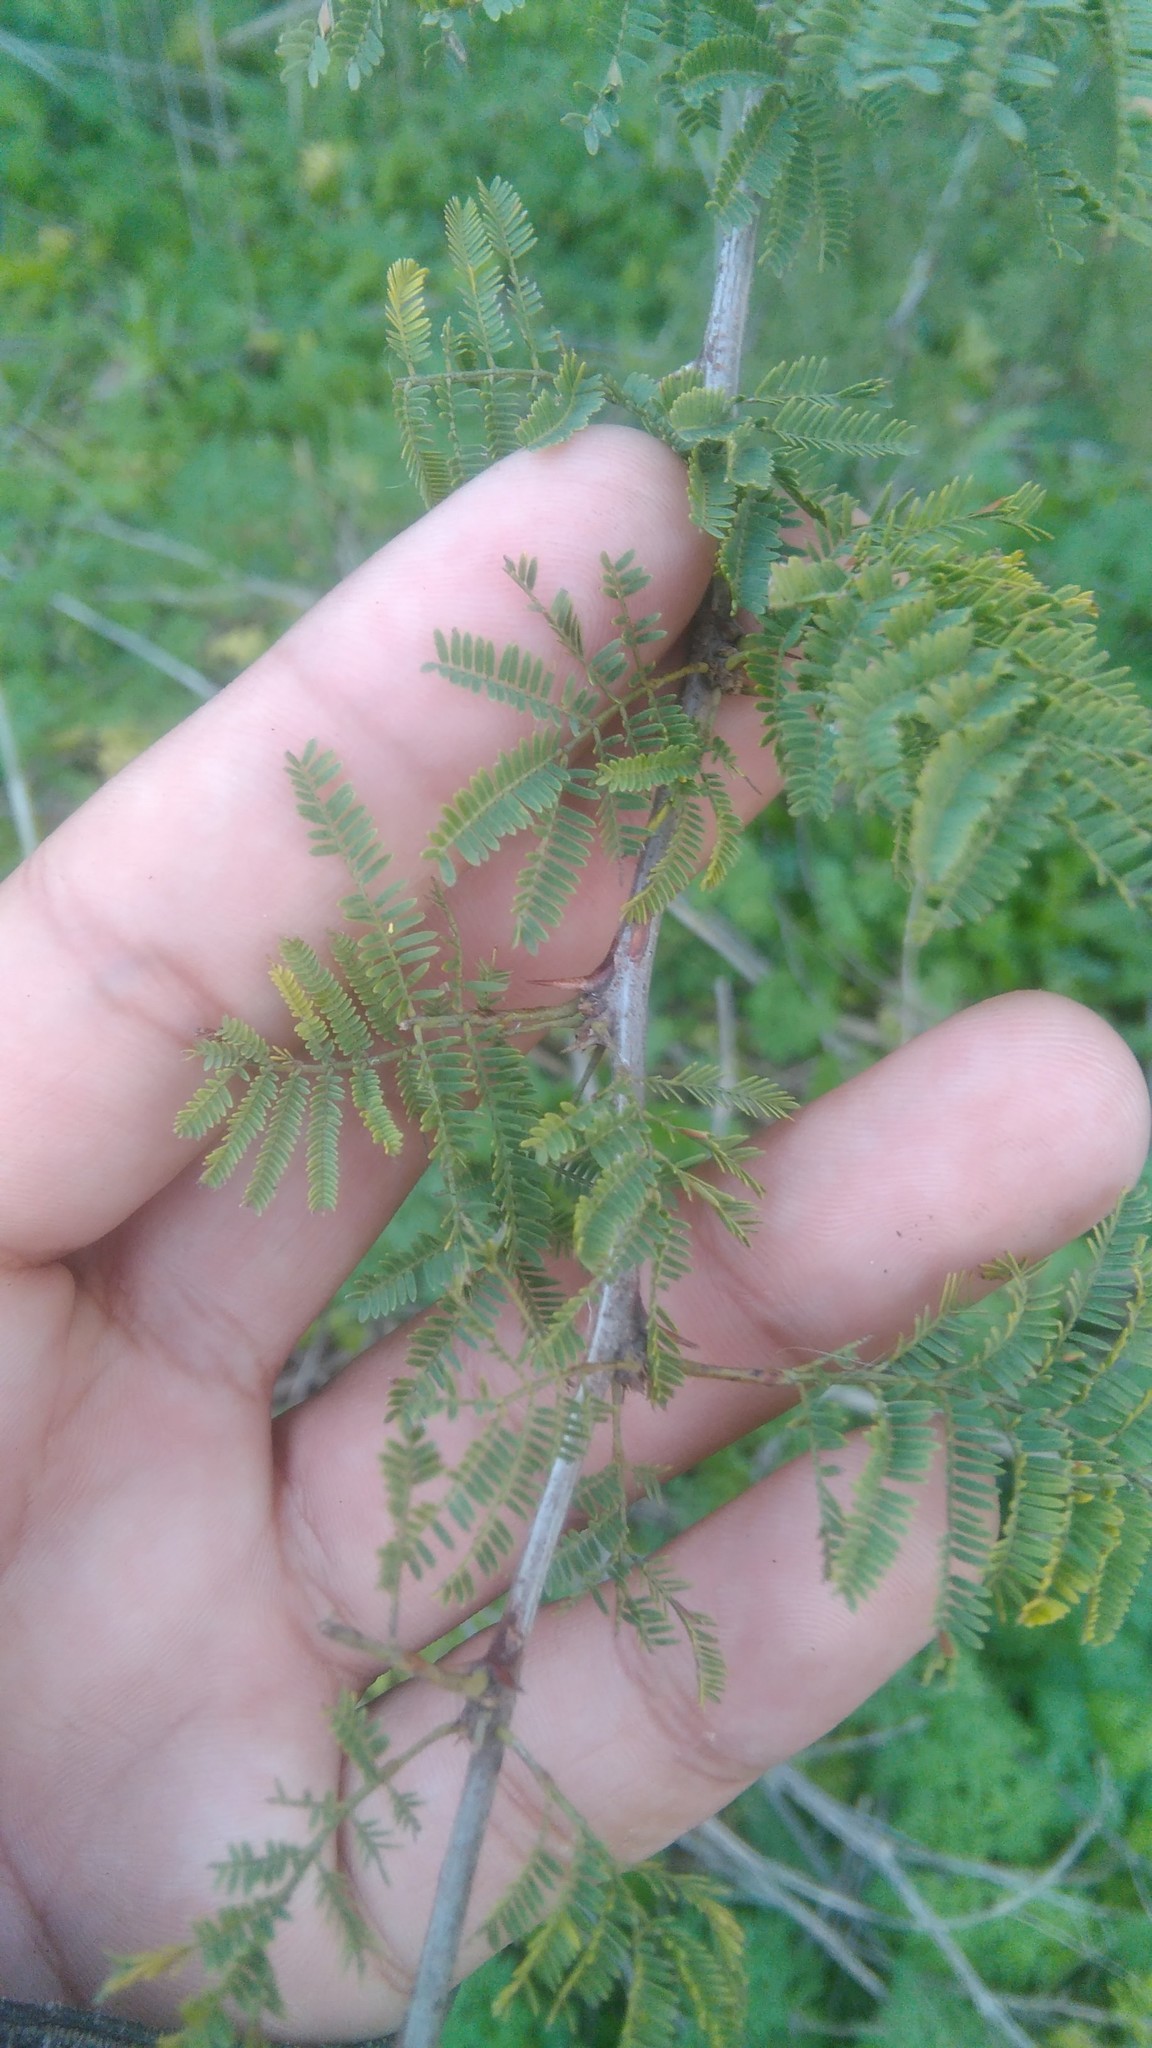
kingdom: Plantae
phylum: Tracheophyta
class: Magnoliopsida
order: Fabales
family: Fabaceae
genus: Vachellia
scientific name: Vachellia caven
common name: Roman cassie
